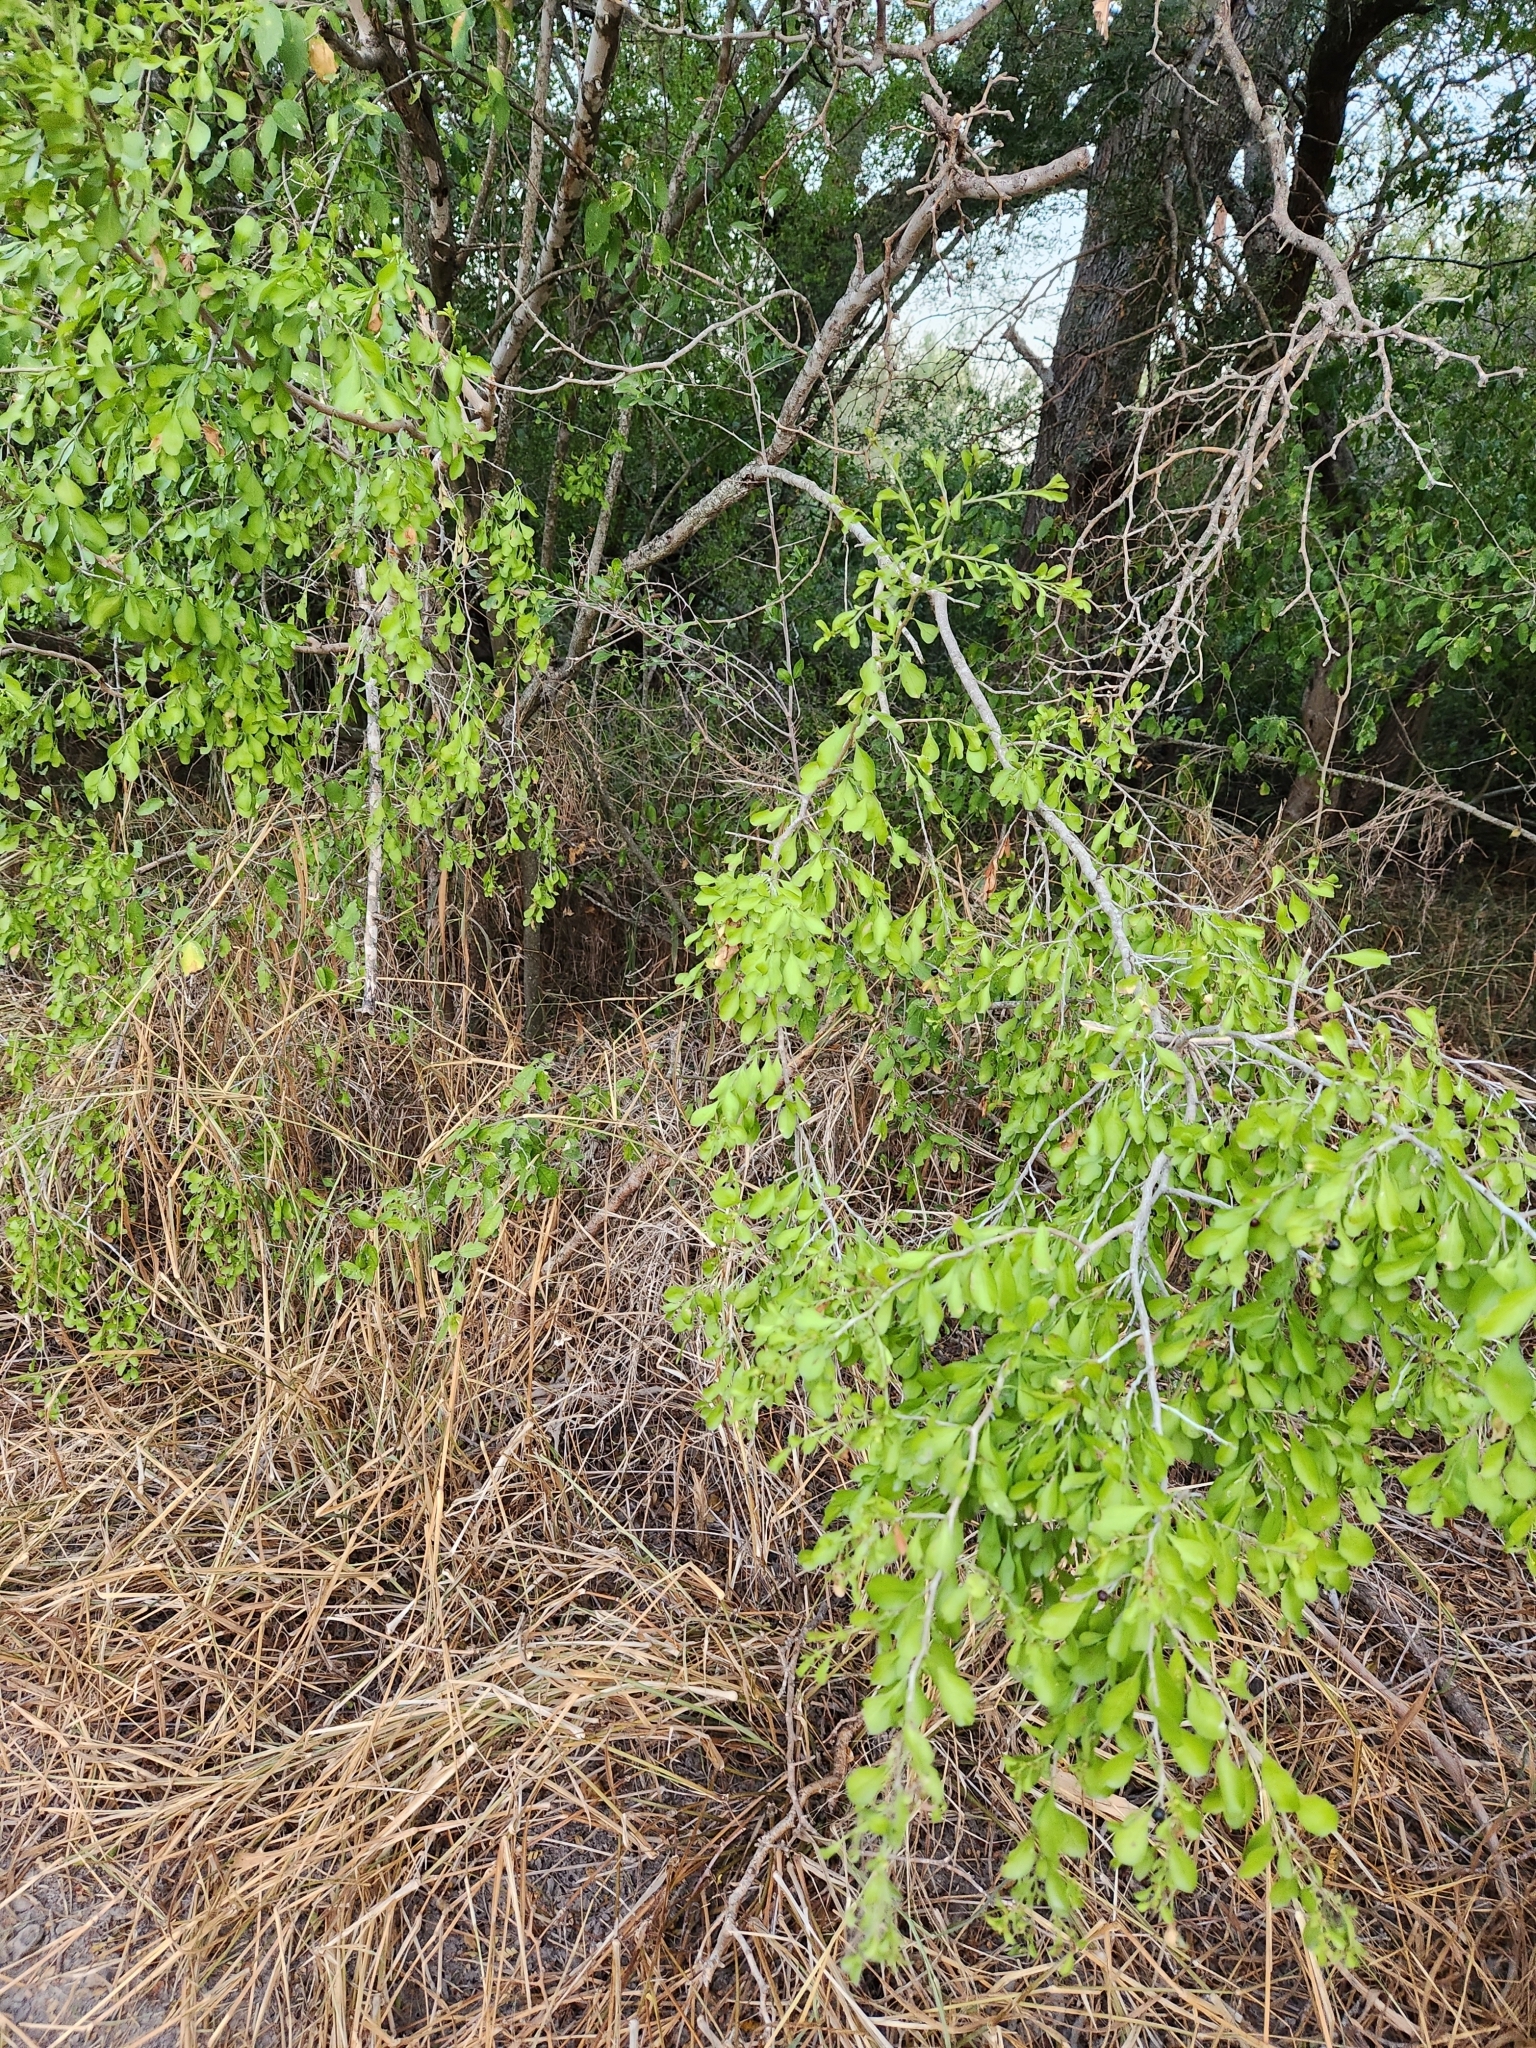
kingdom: Plantae
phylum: Tracheophyta
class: Magnoliopsida
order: Rosales
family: Rhamnaceae
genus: Condalia
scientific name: Condalia hookeri
